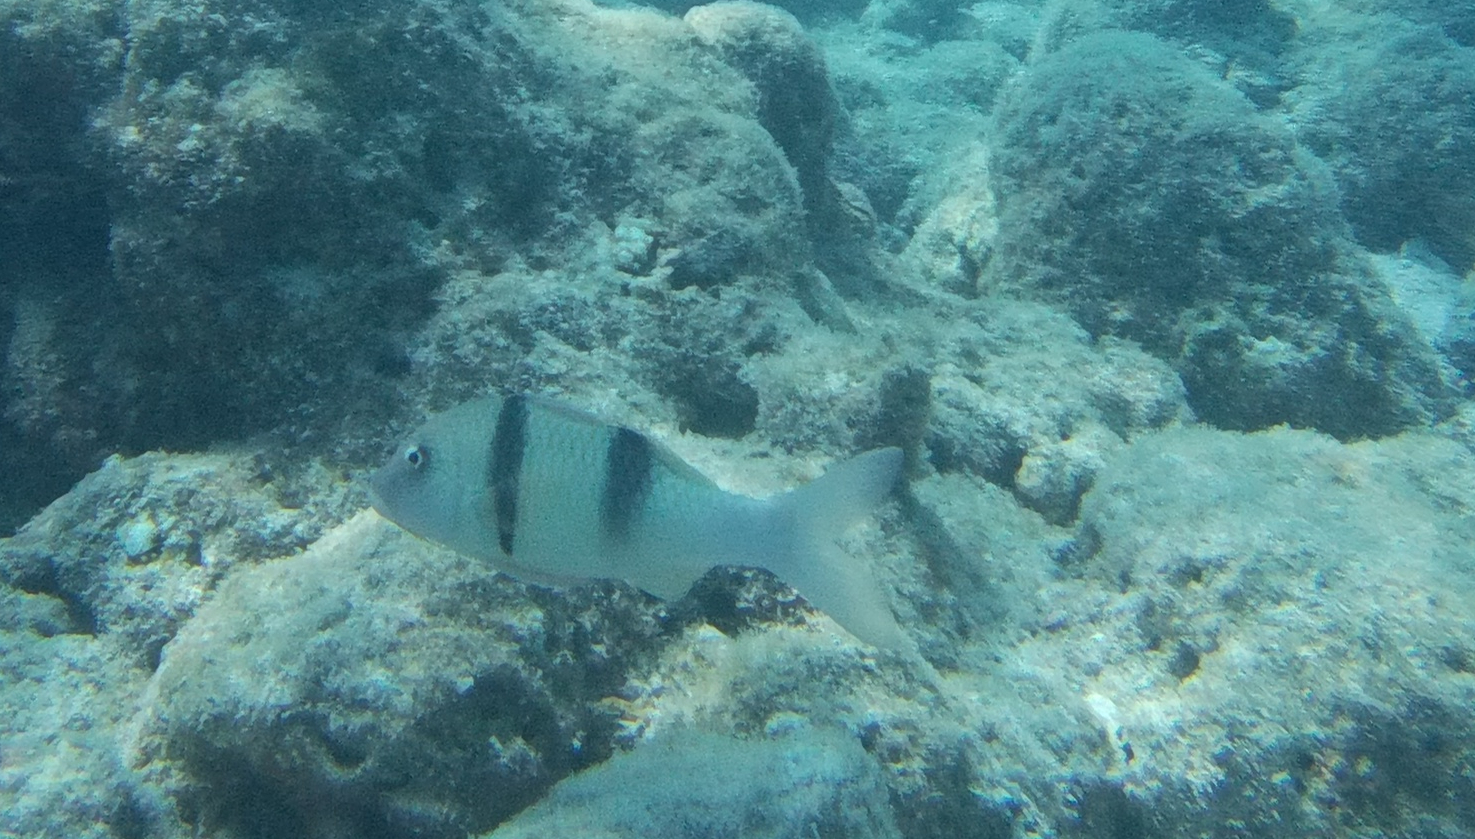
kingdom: Animalia
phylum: Chordata
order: Perciformes
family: Mullidae
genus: Parupeneus
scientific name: Parupeneus trifasciatus
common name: Doublebar goatfish
